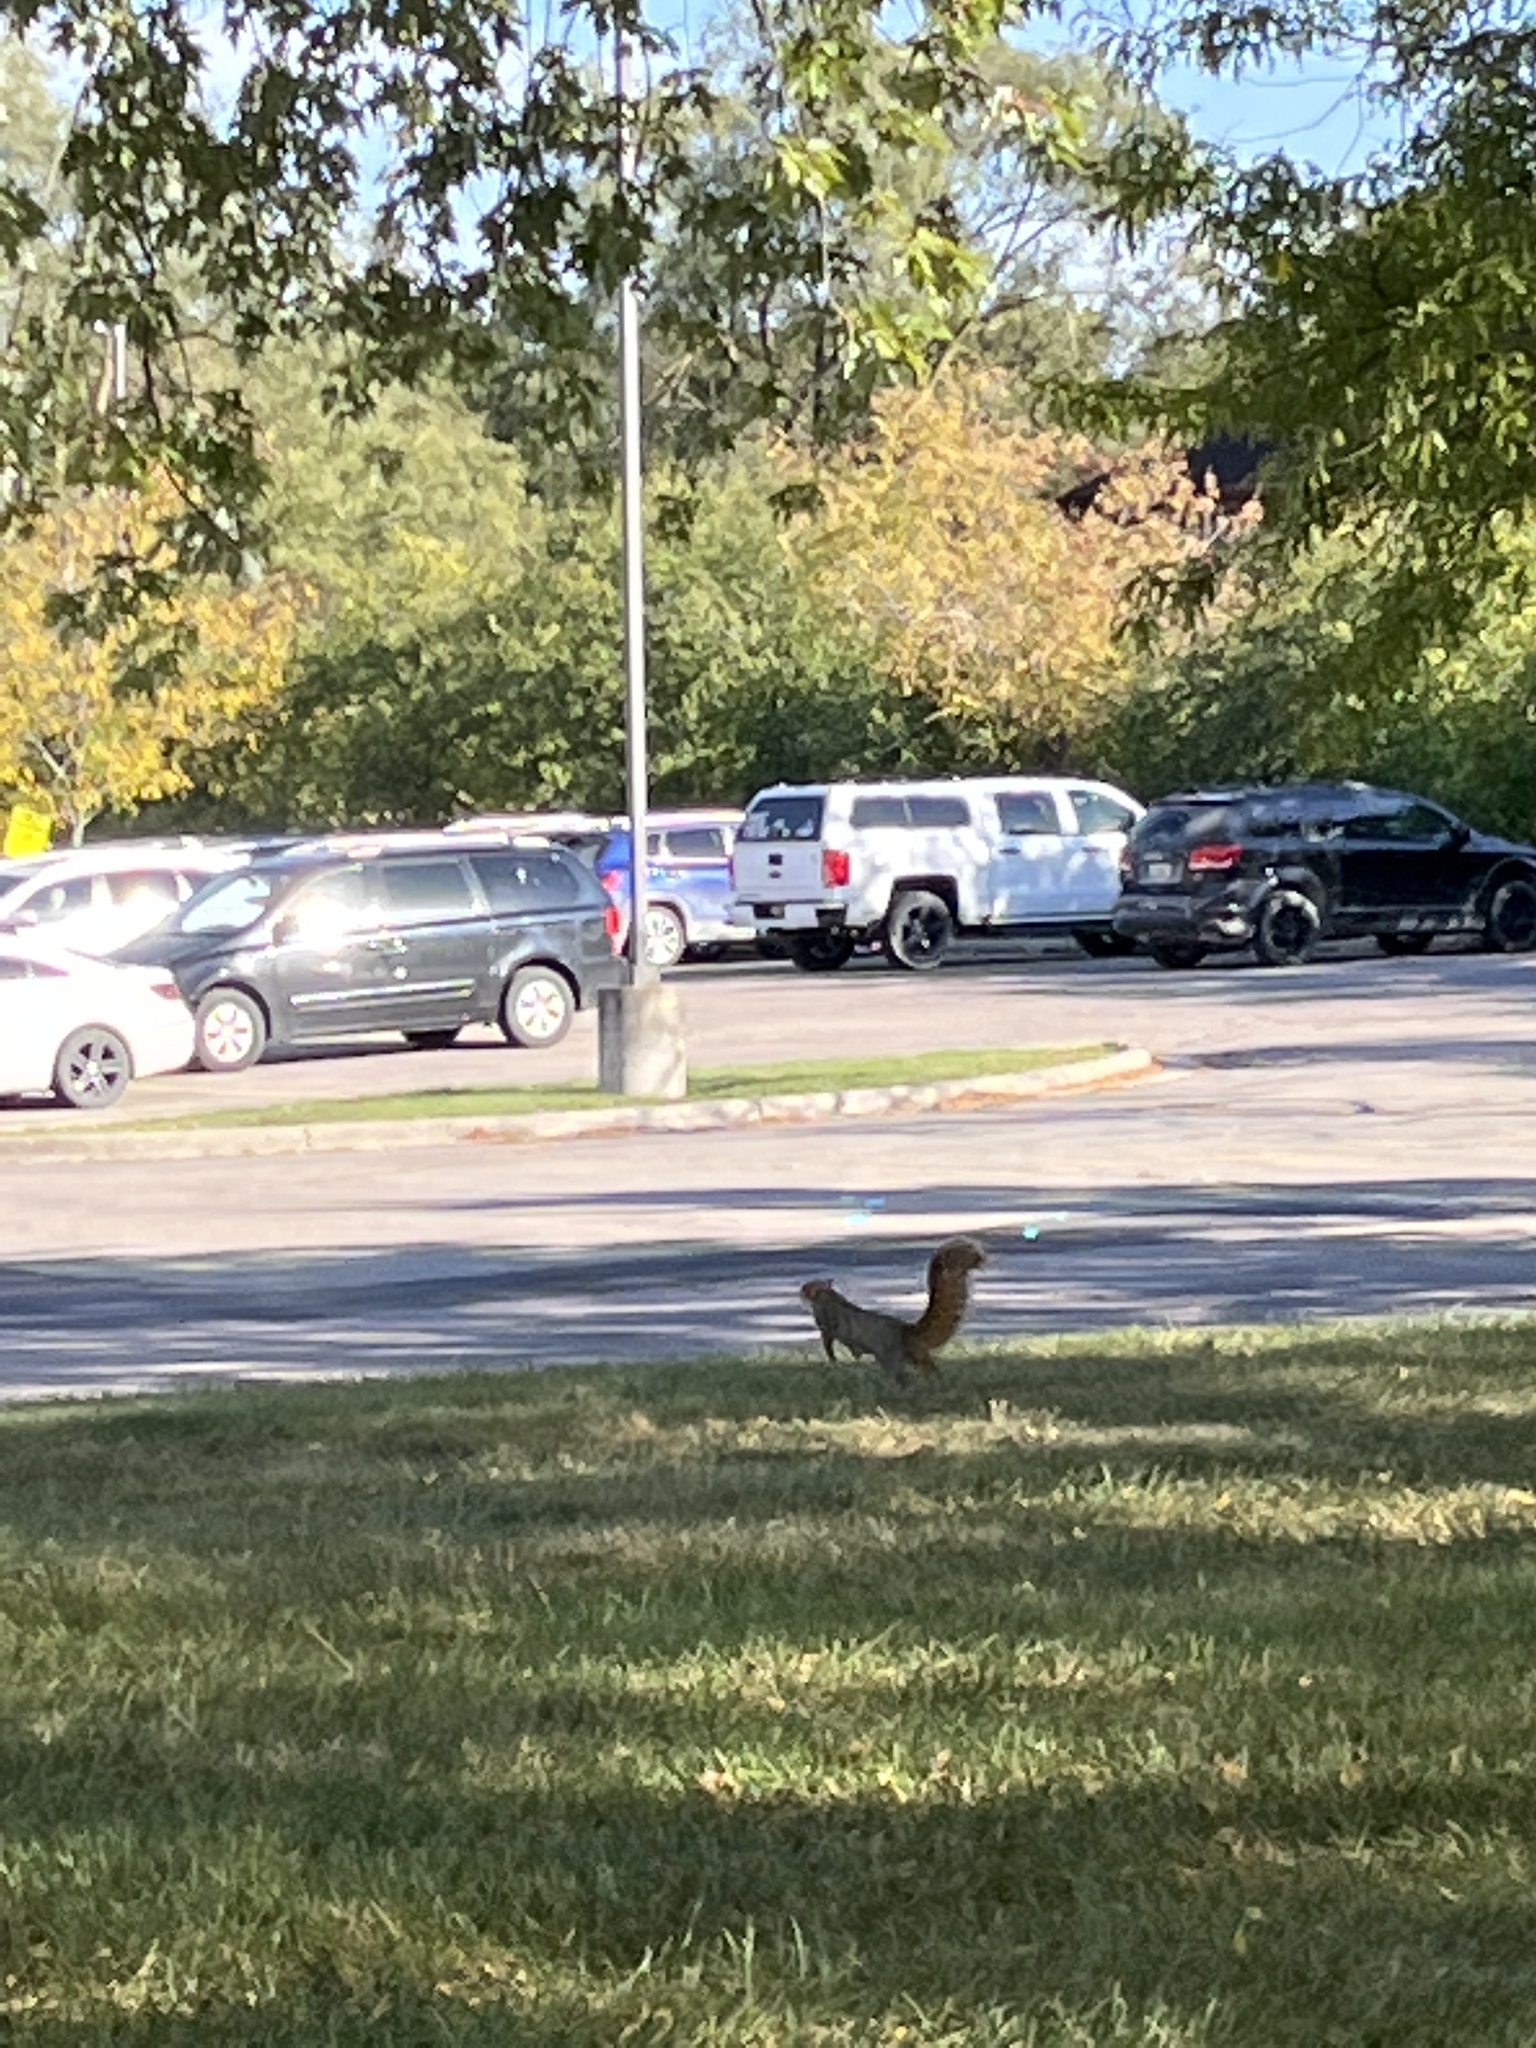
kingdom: Animalia
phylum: Chordata
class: Mammalia
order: Rodentia
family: Sciuridae
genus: Sciurus
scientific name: Sciurus niger
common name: Fox squirrel
